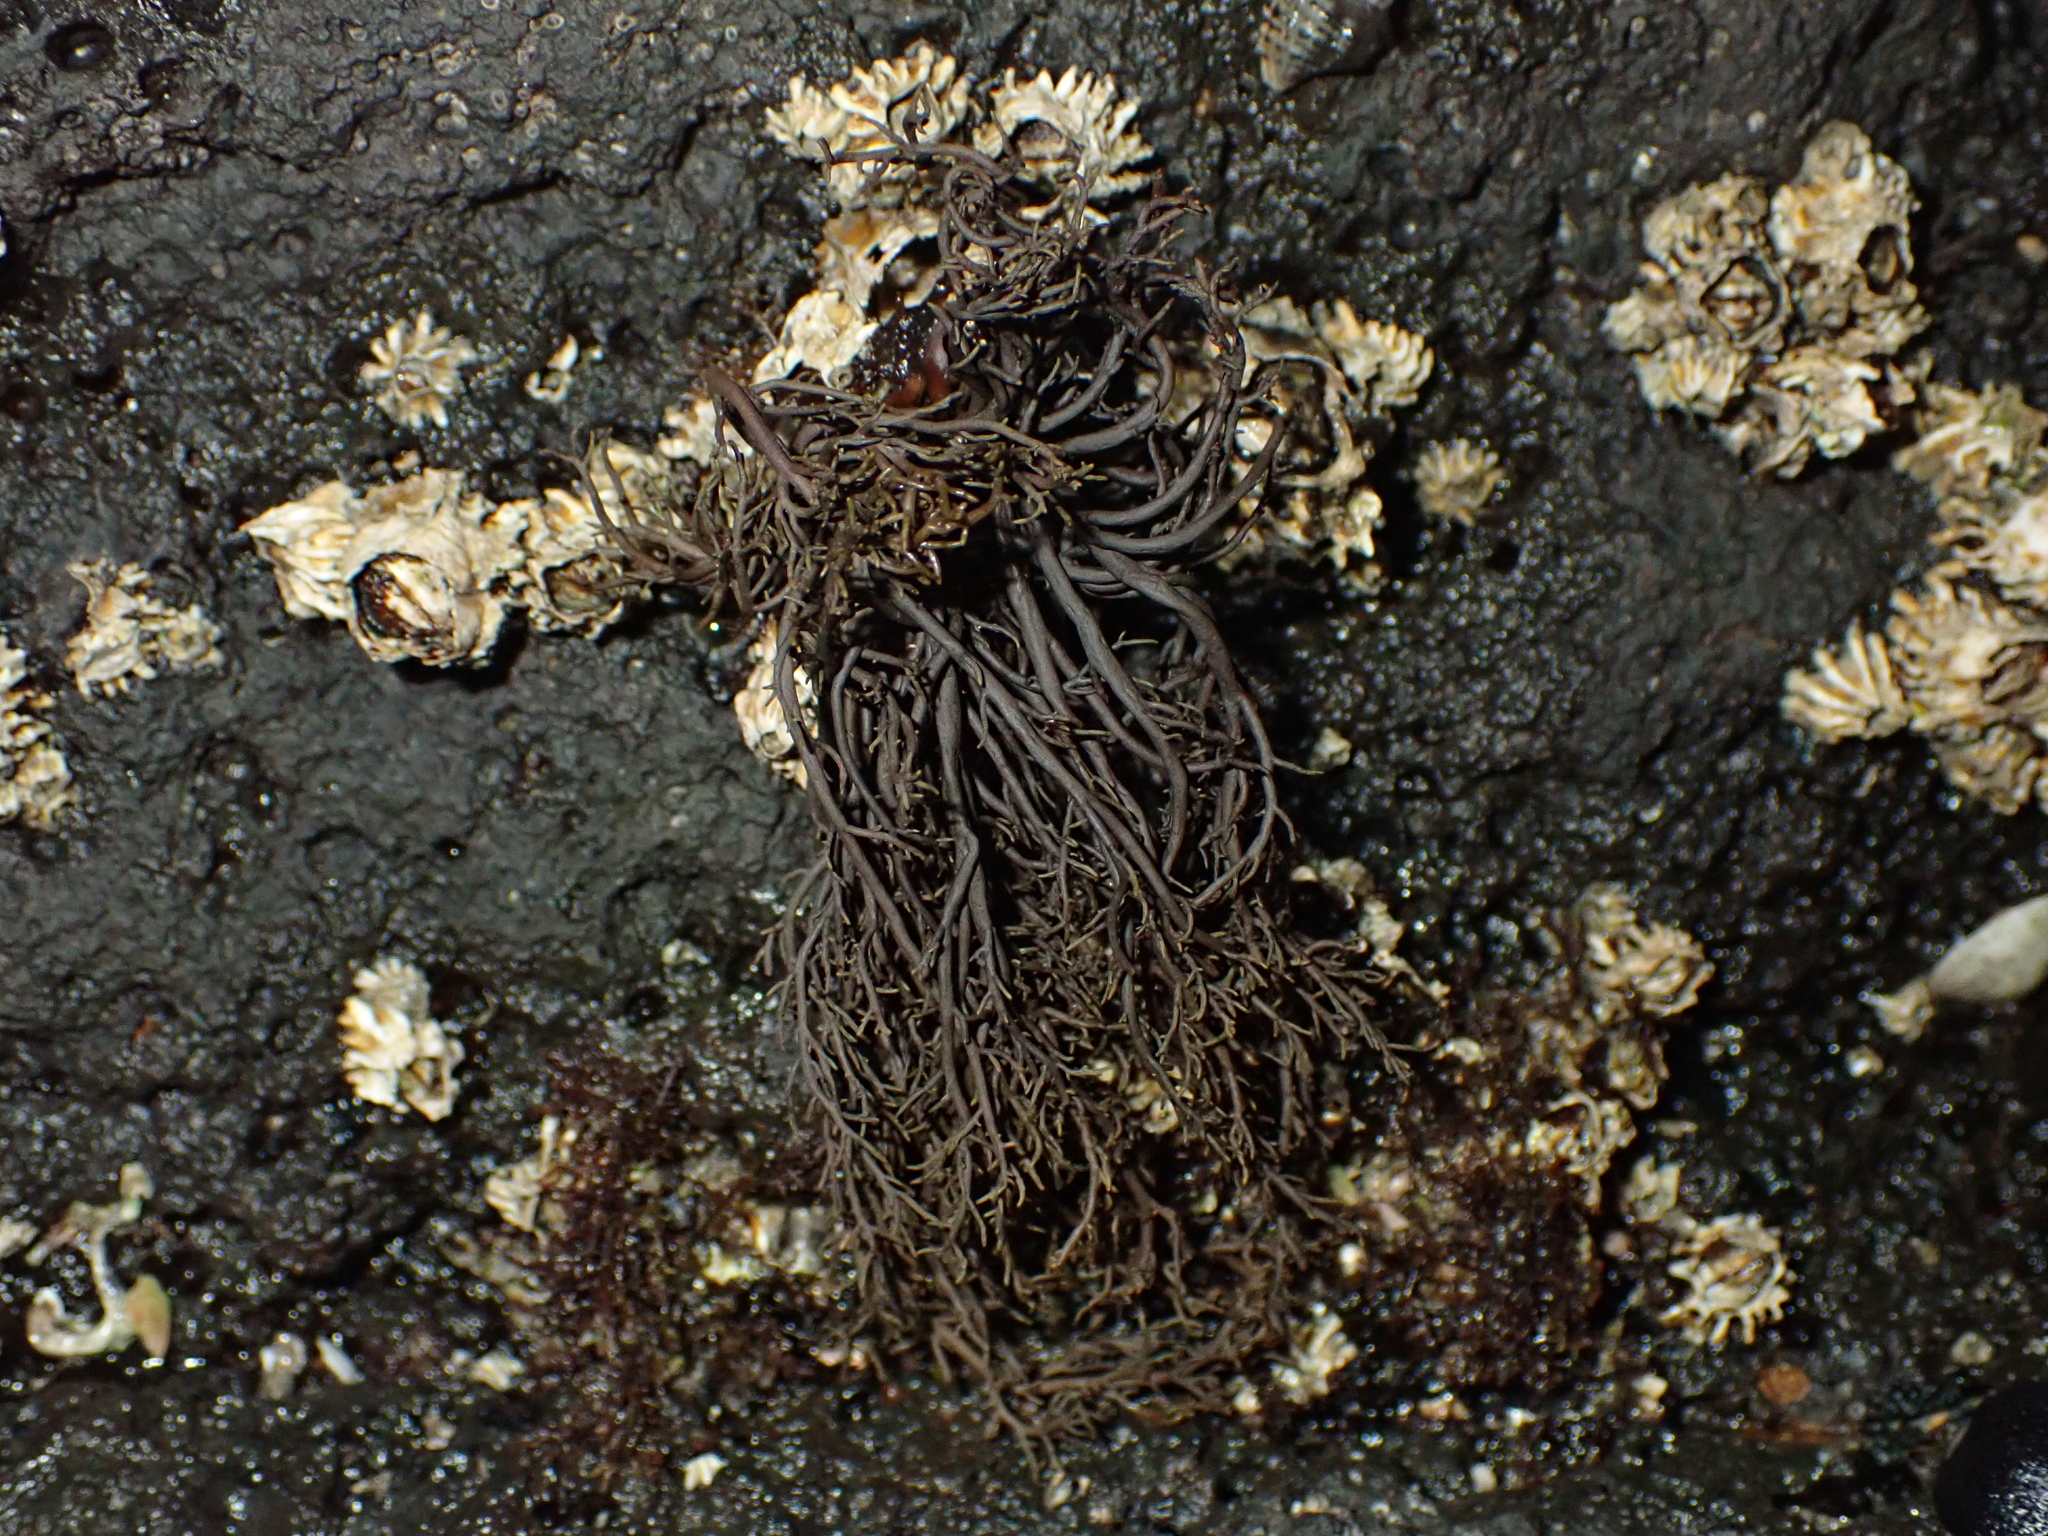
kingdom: Chromista
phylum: Ochrophyta
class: Phaeophyceae
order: Scytothamnales
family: Scytothamnaceae
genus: Scytothamnus
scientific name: Scytothamnus australis
